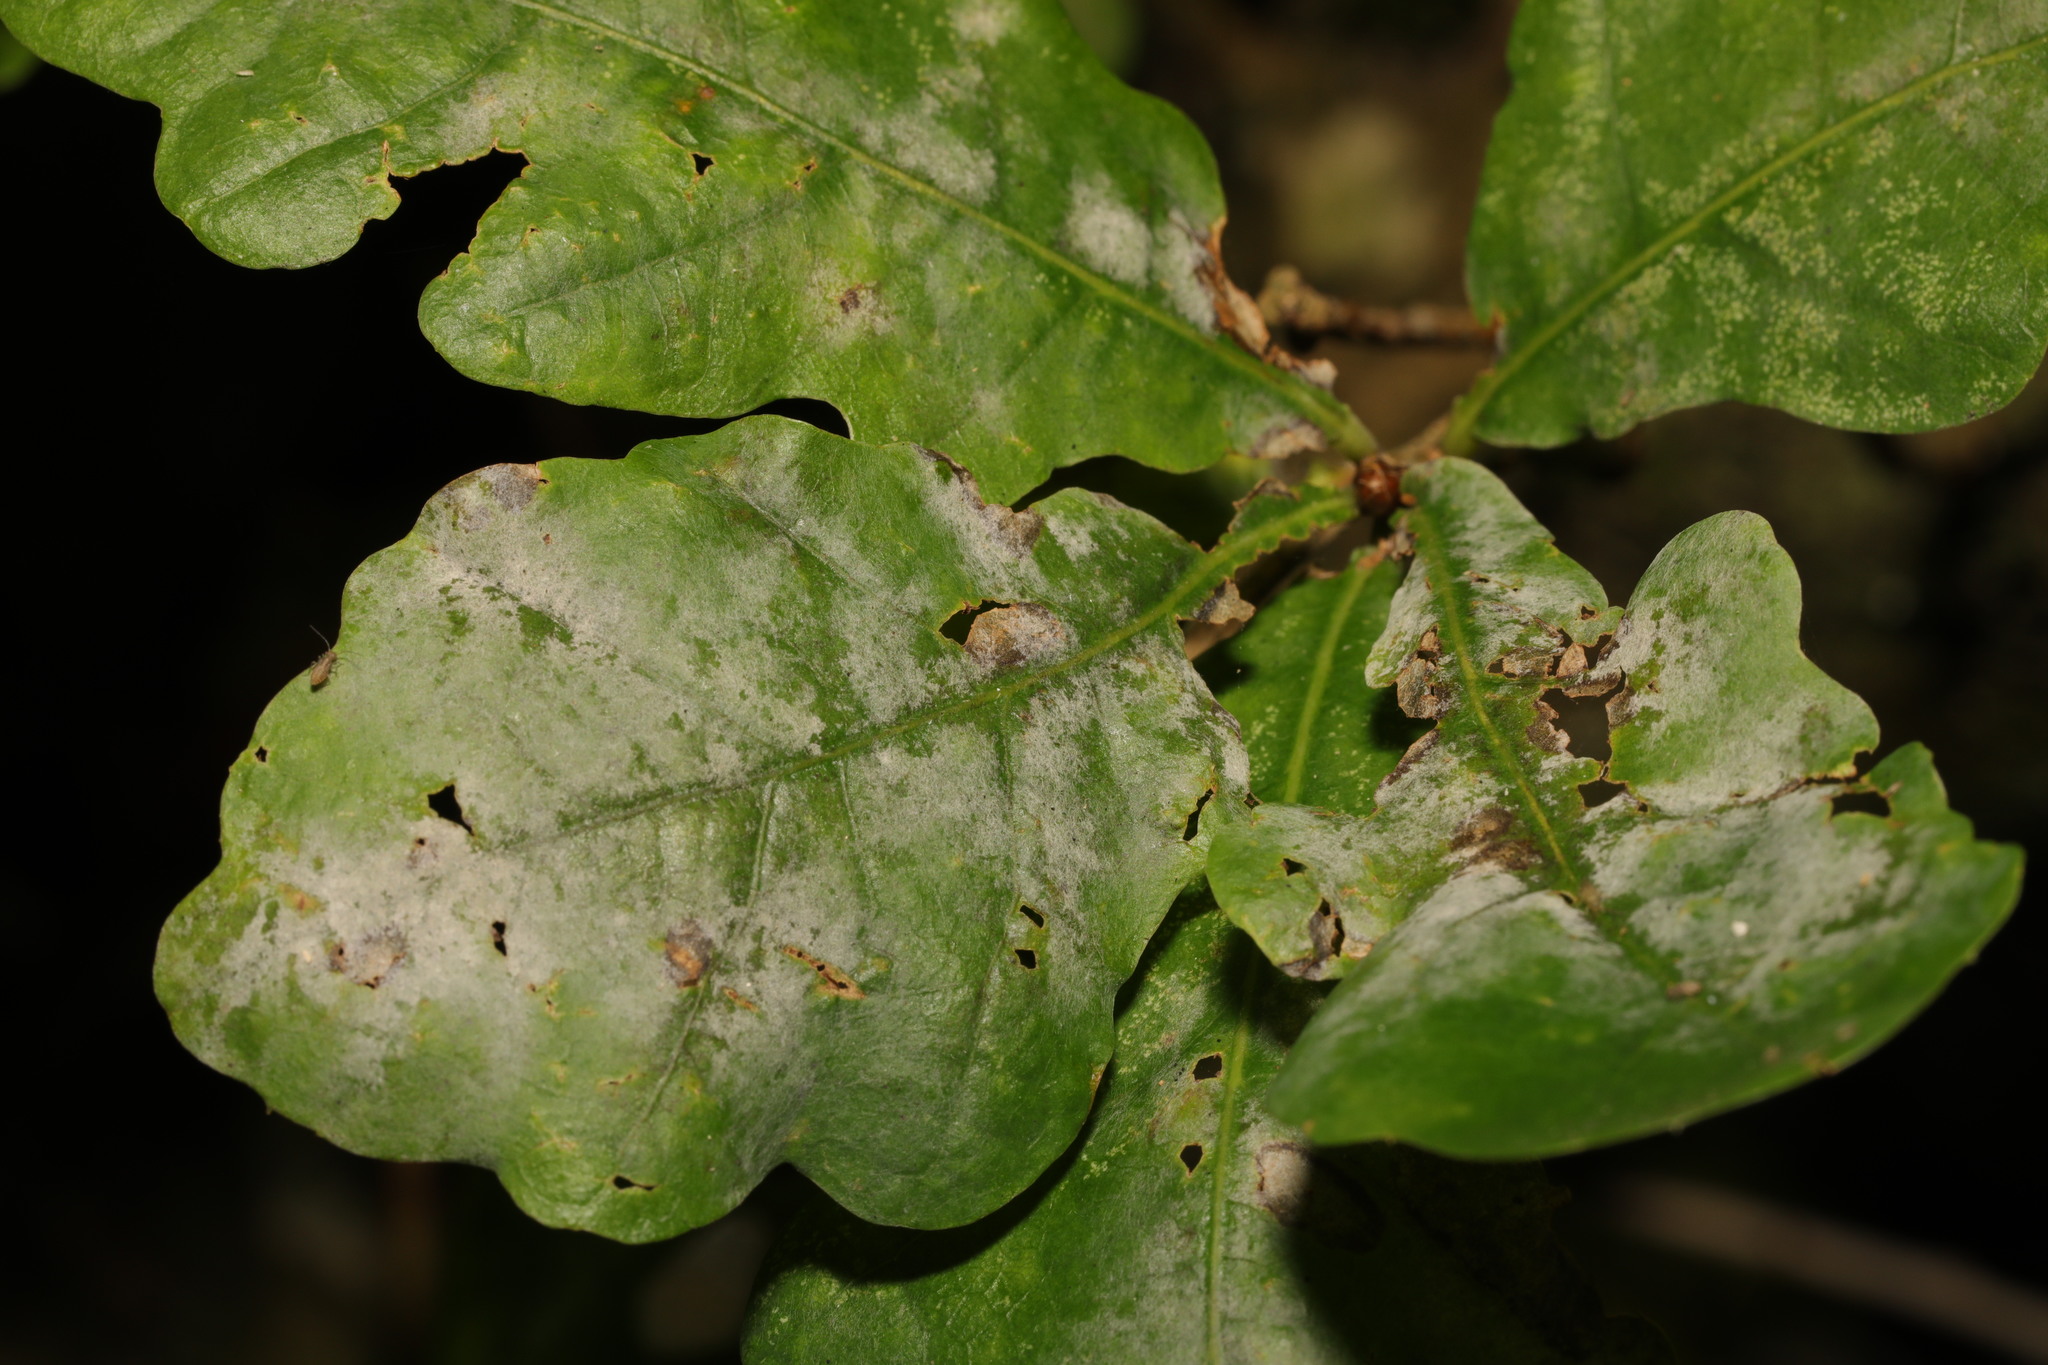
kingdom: Fungi
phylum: Ascomycota
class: Leotiomycetes
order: Helotiales
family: Erysiphaceae
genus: Erysiphe
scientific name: Erysiphe alphitoides
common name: Oak mildew
